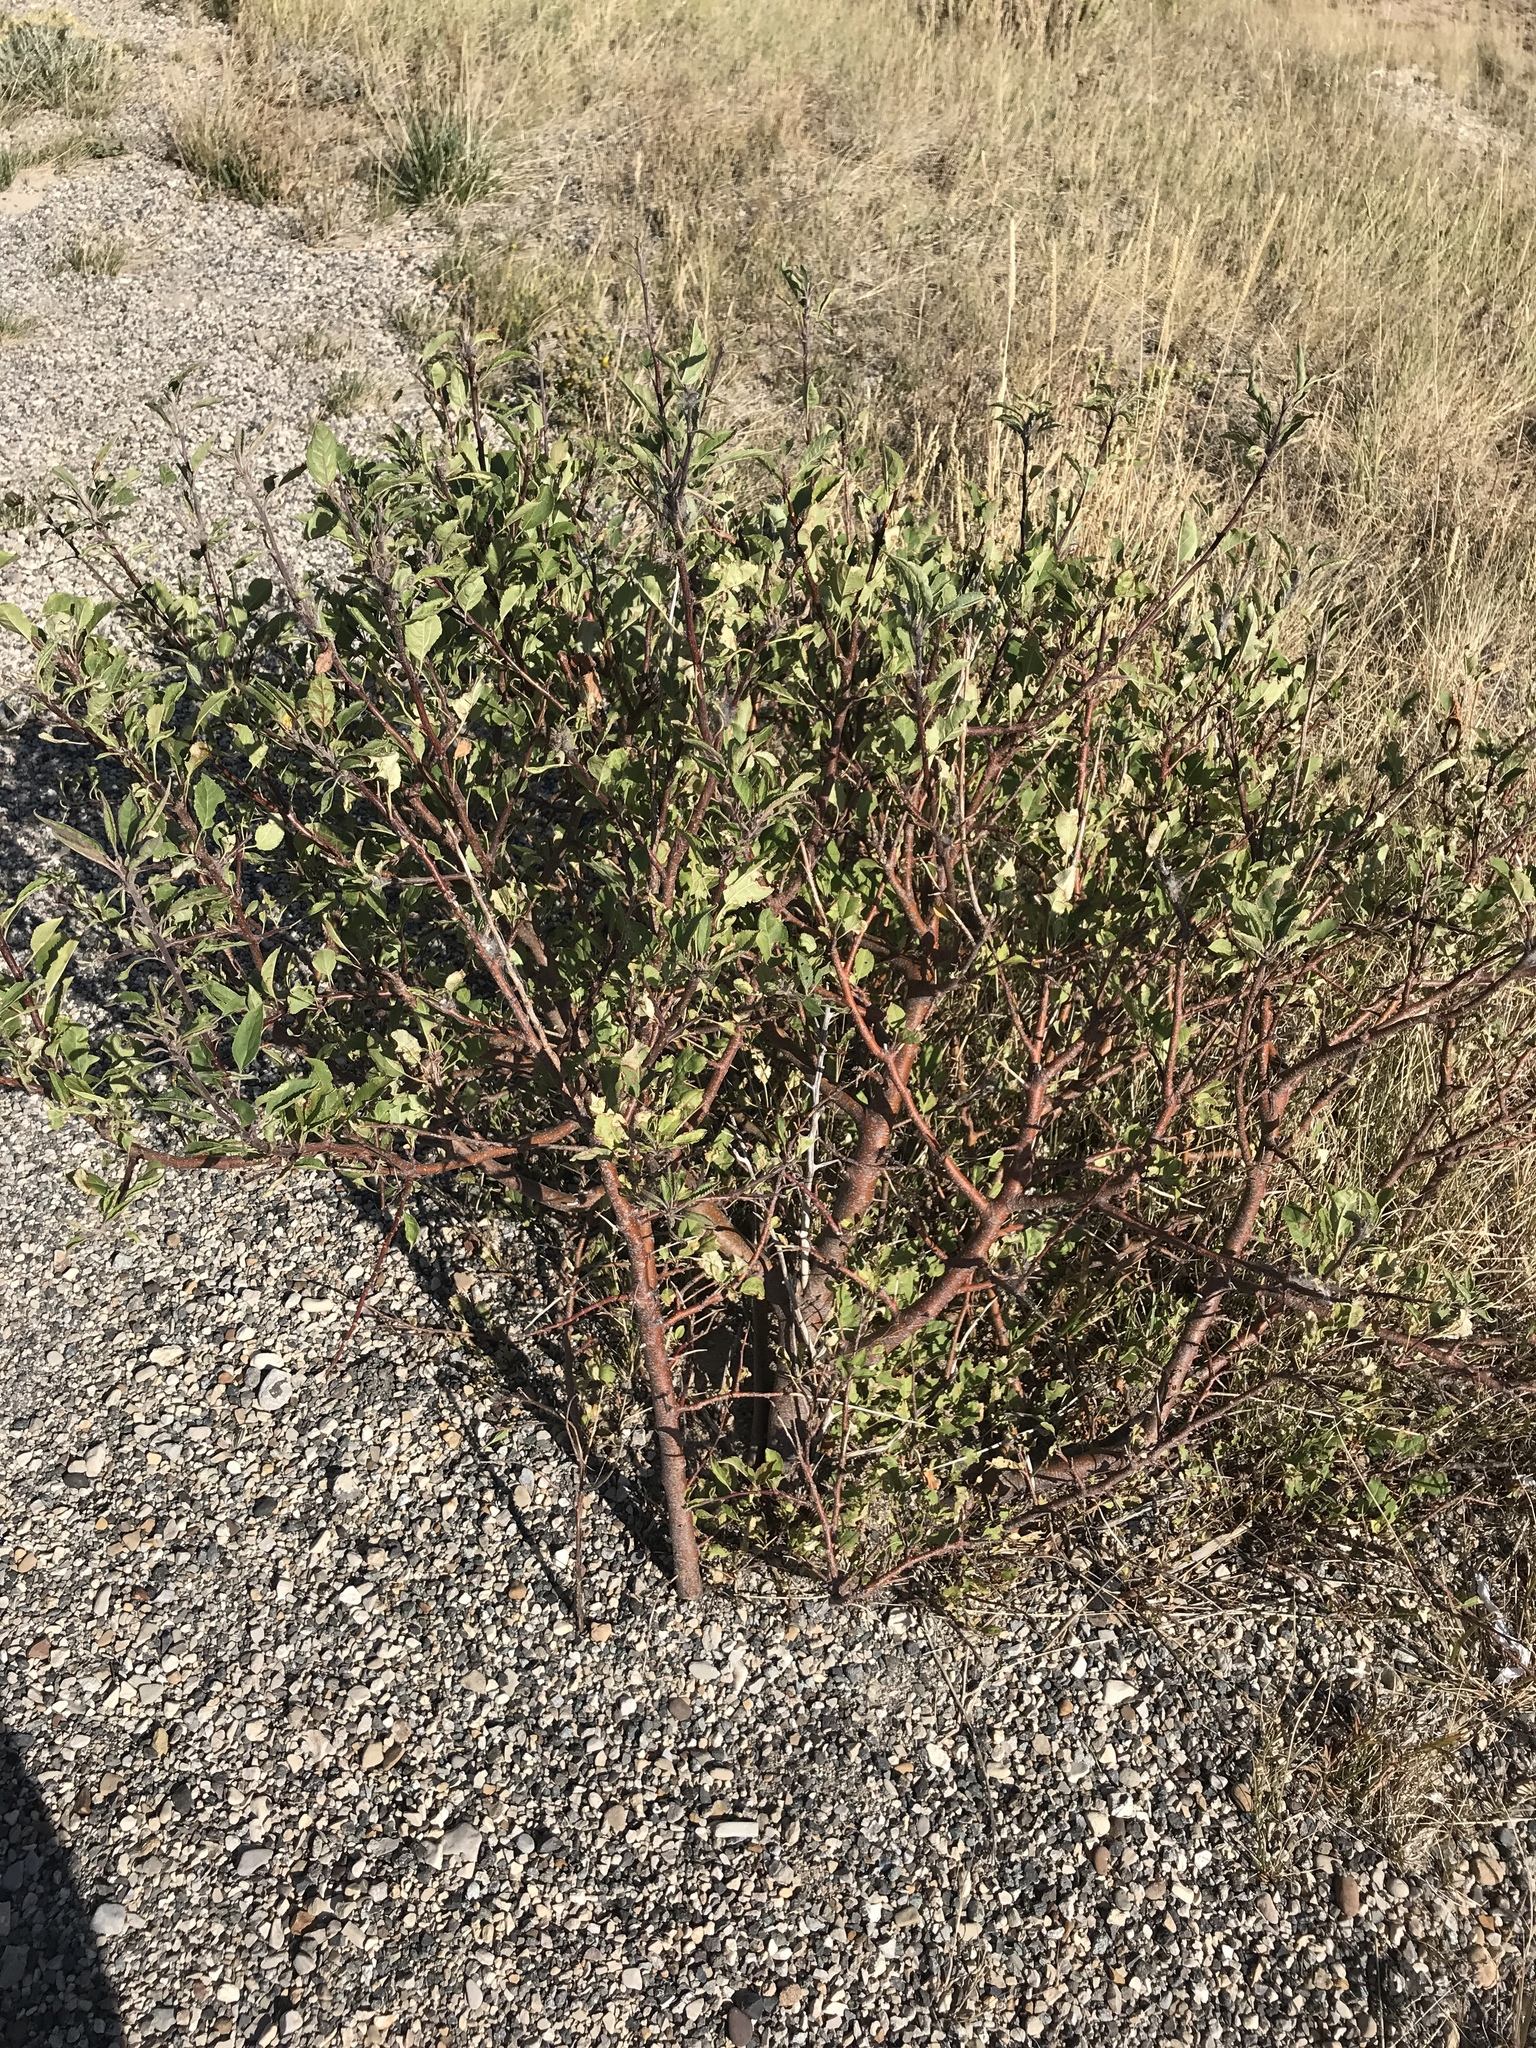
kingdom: Plantae
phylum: Tracheophyta
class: Magnoliopsida
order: Rosales
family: Rosaceae
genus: Prunus
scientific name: Prunus virginiana
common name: Chokecherry
